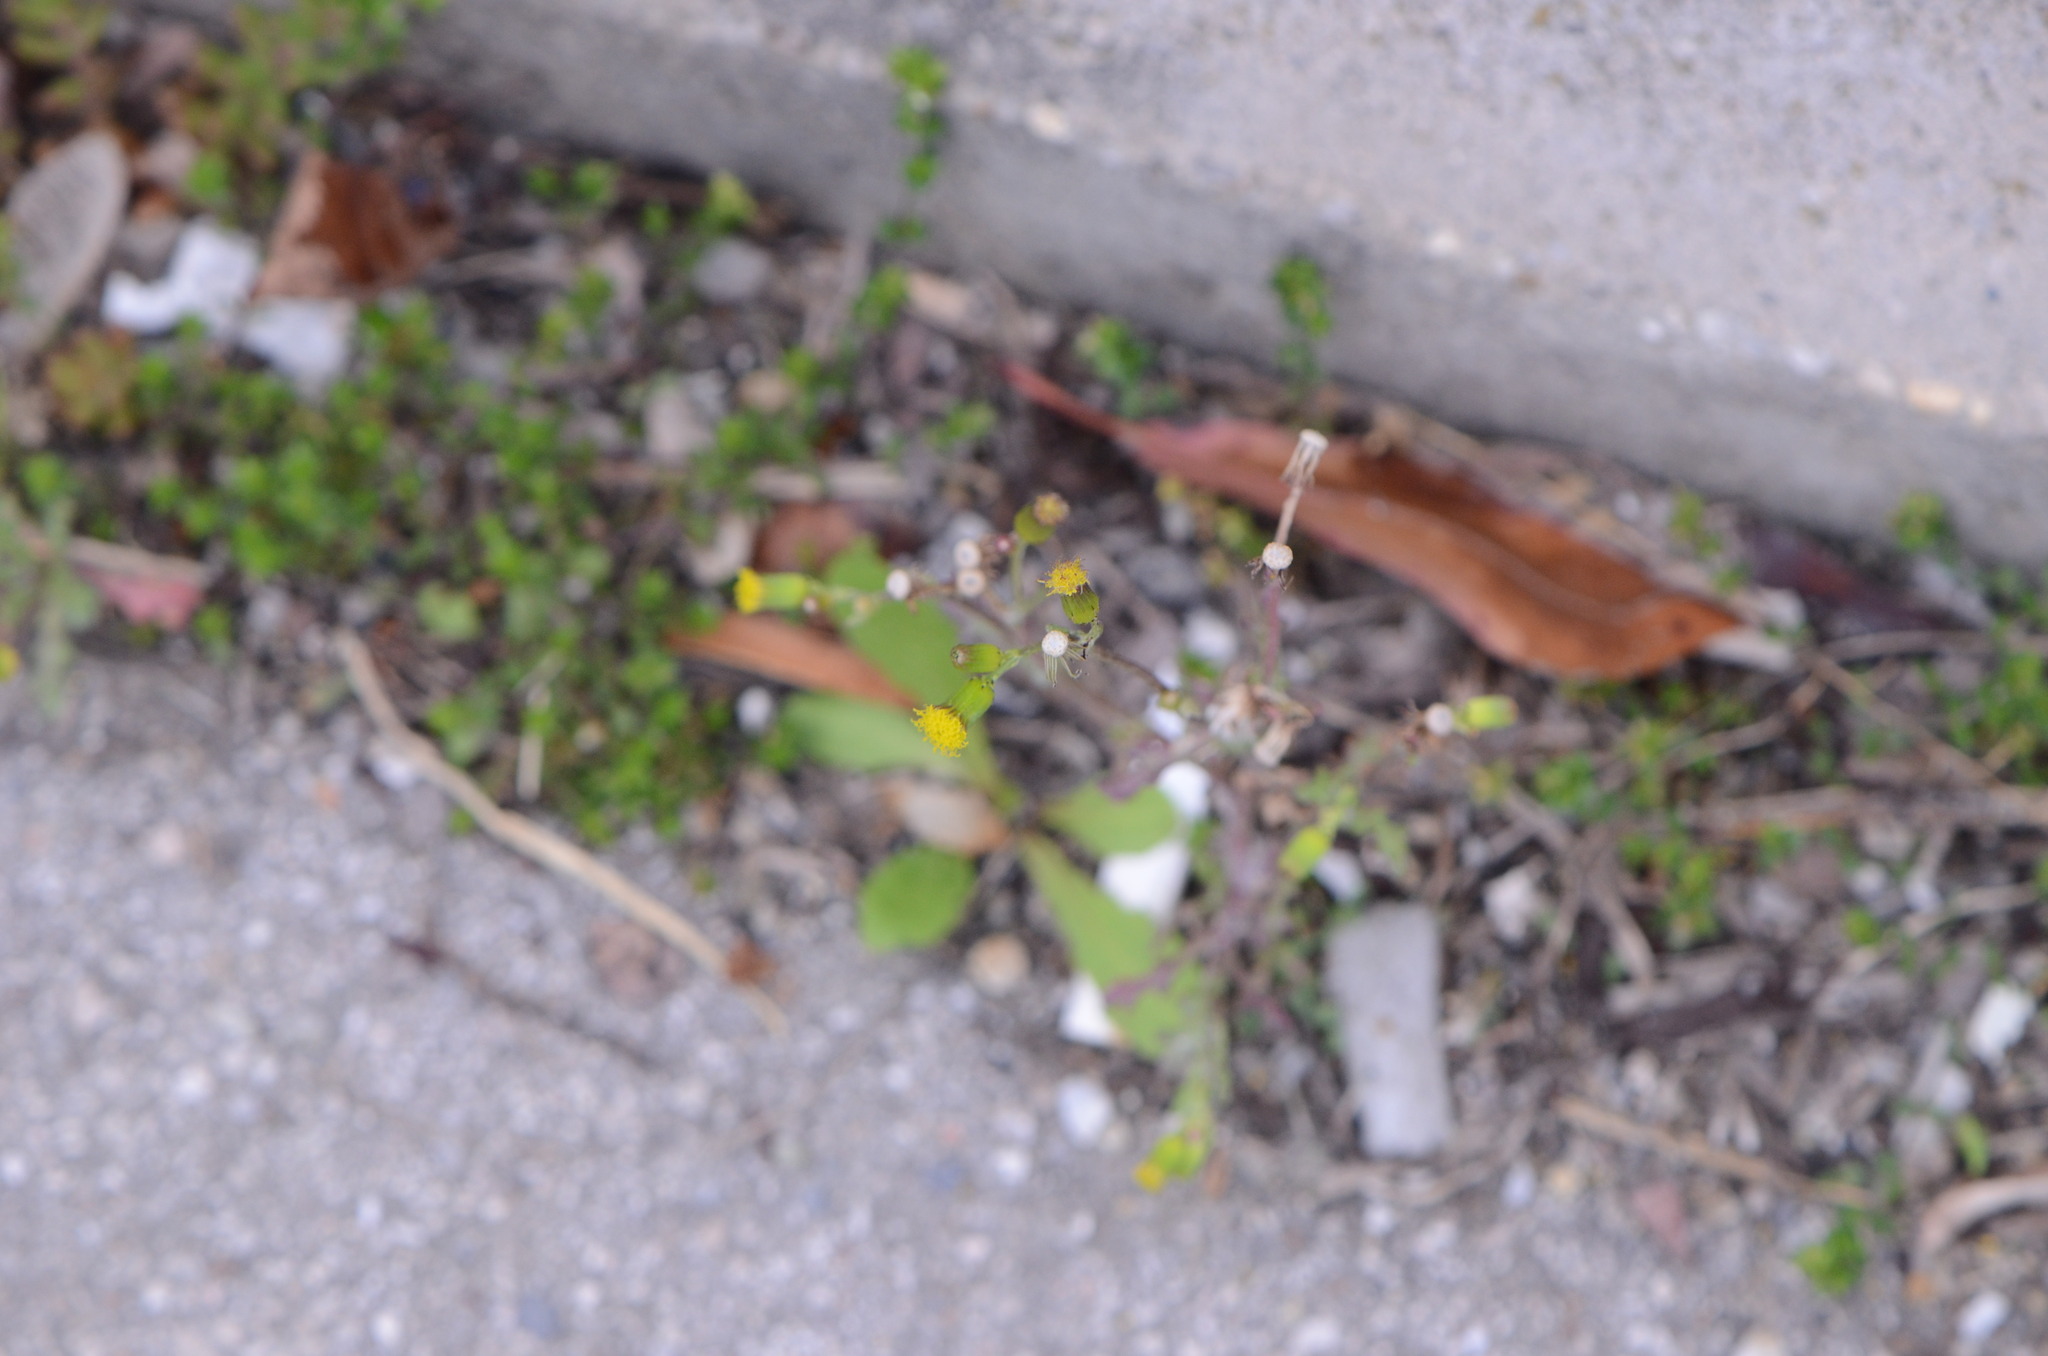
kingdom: Plantae
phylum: Tracheophyta
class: Magnoliopsida
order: Asterales
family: Asteraceae
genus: Senecio
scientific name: Senecio vulgaris
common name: Old-man-in-the-spring
